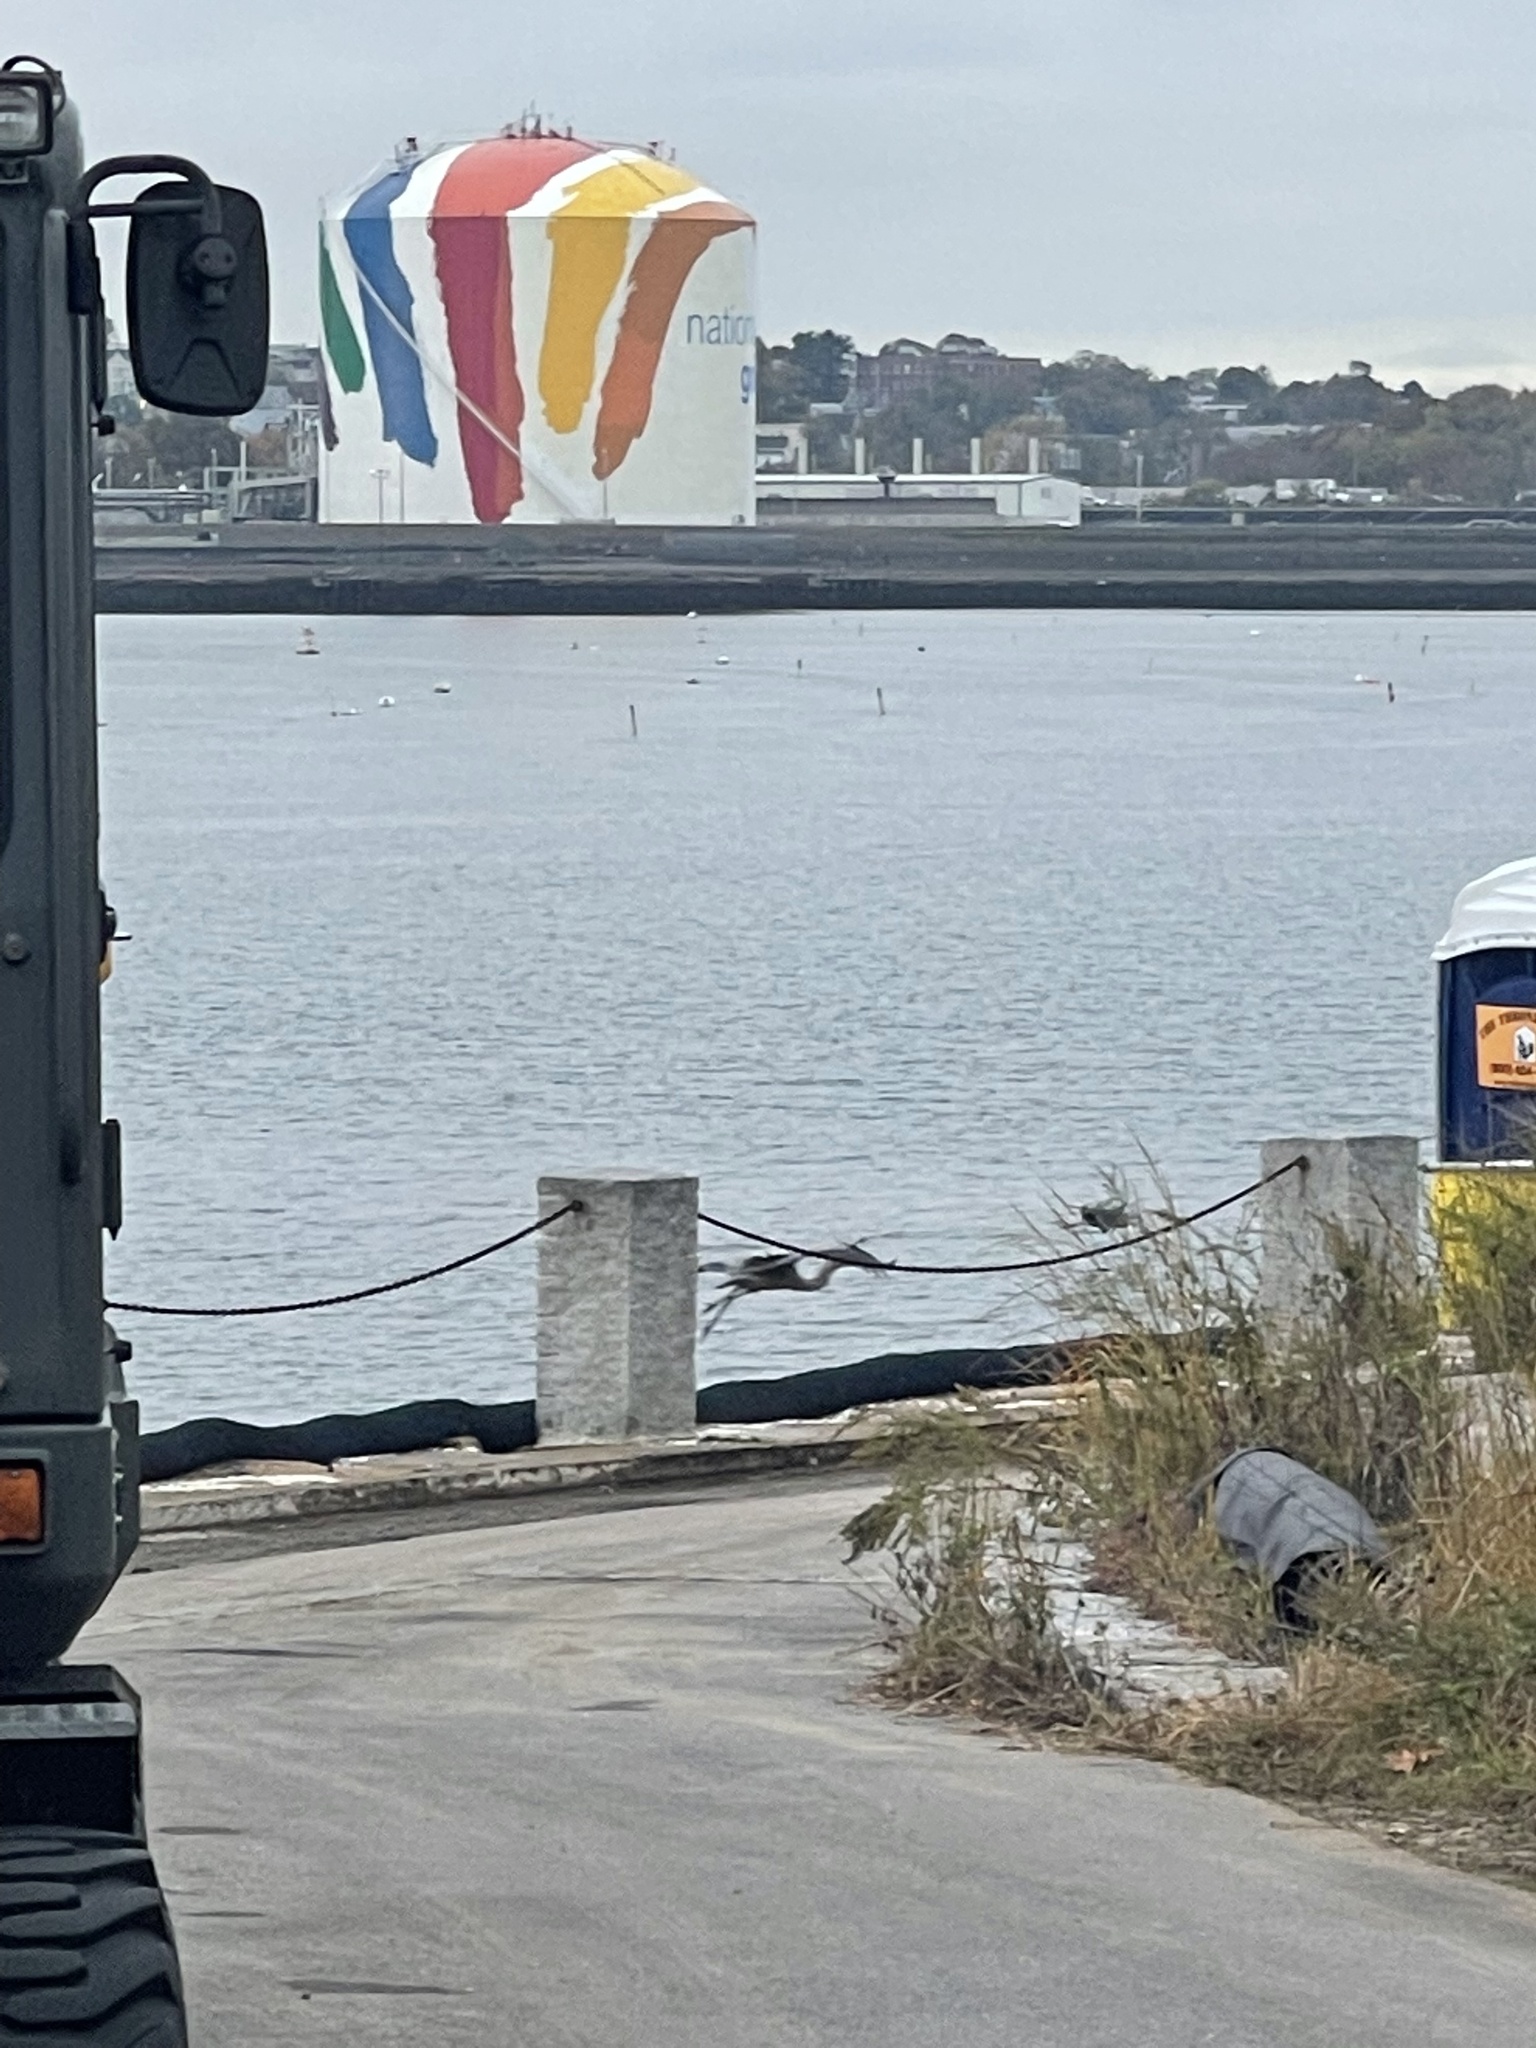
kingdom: Animalia
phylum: Chordata
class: Aves
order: Pelecaniformes
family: Ardeidae
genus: Ardea
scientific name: Ardea herodias
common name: Great blue heron
